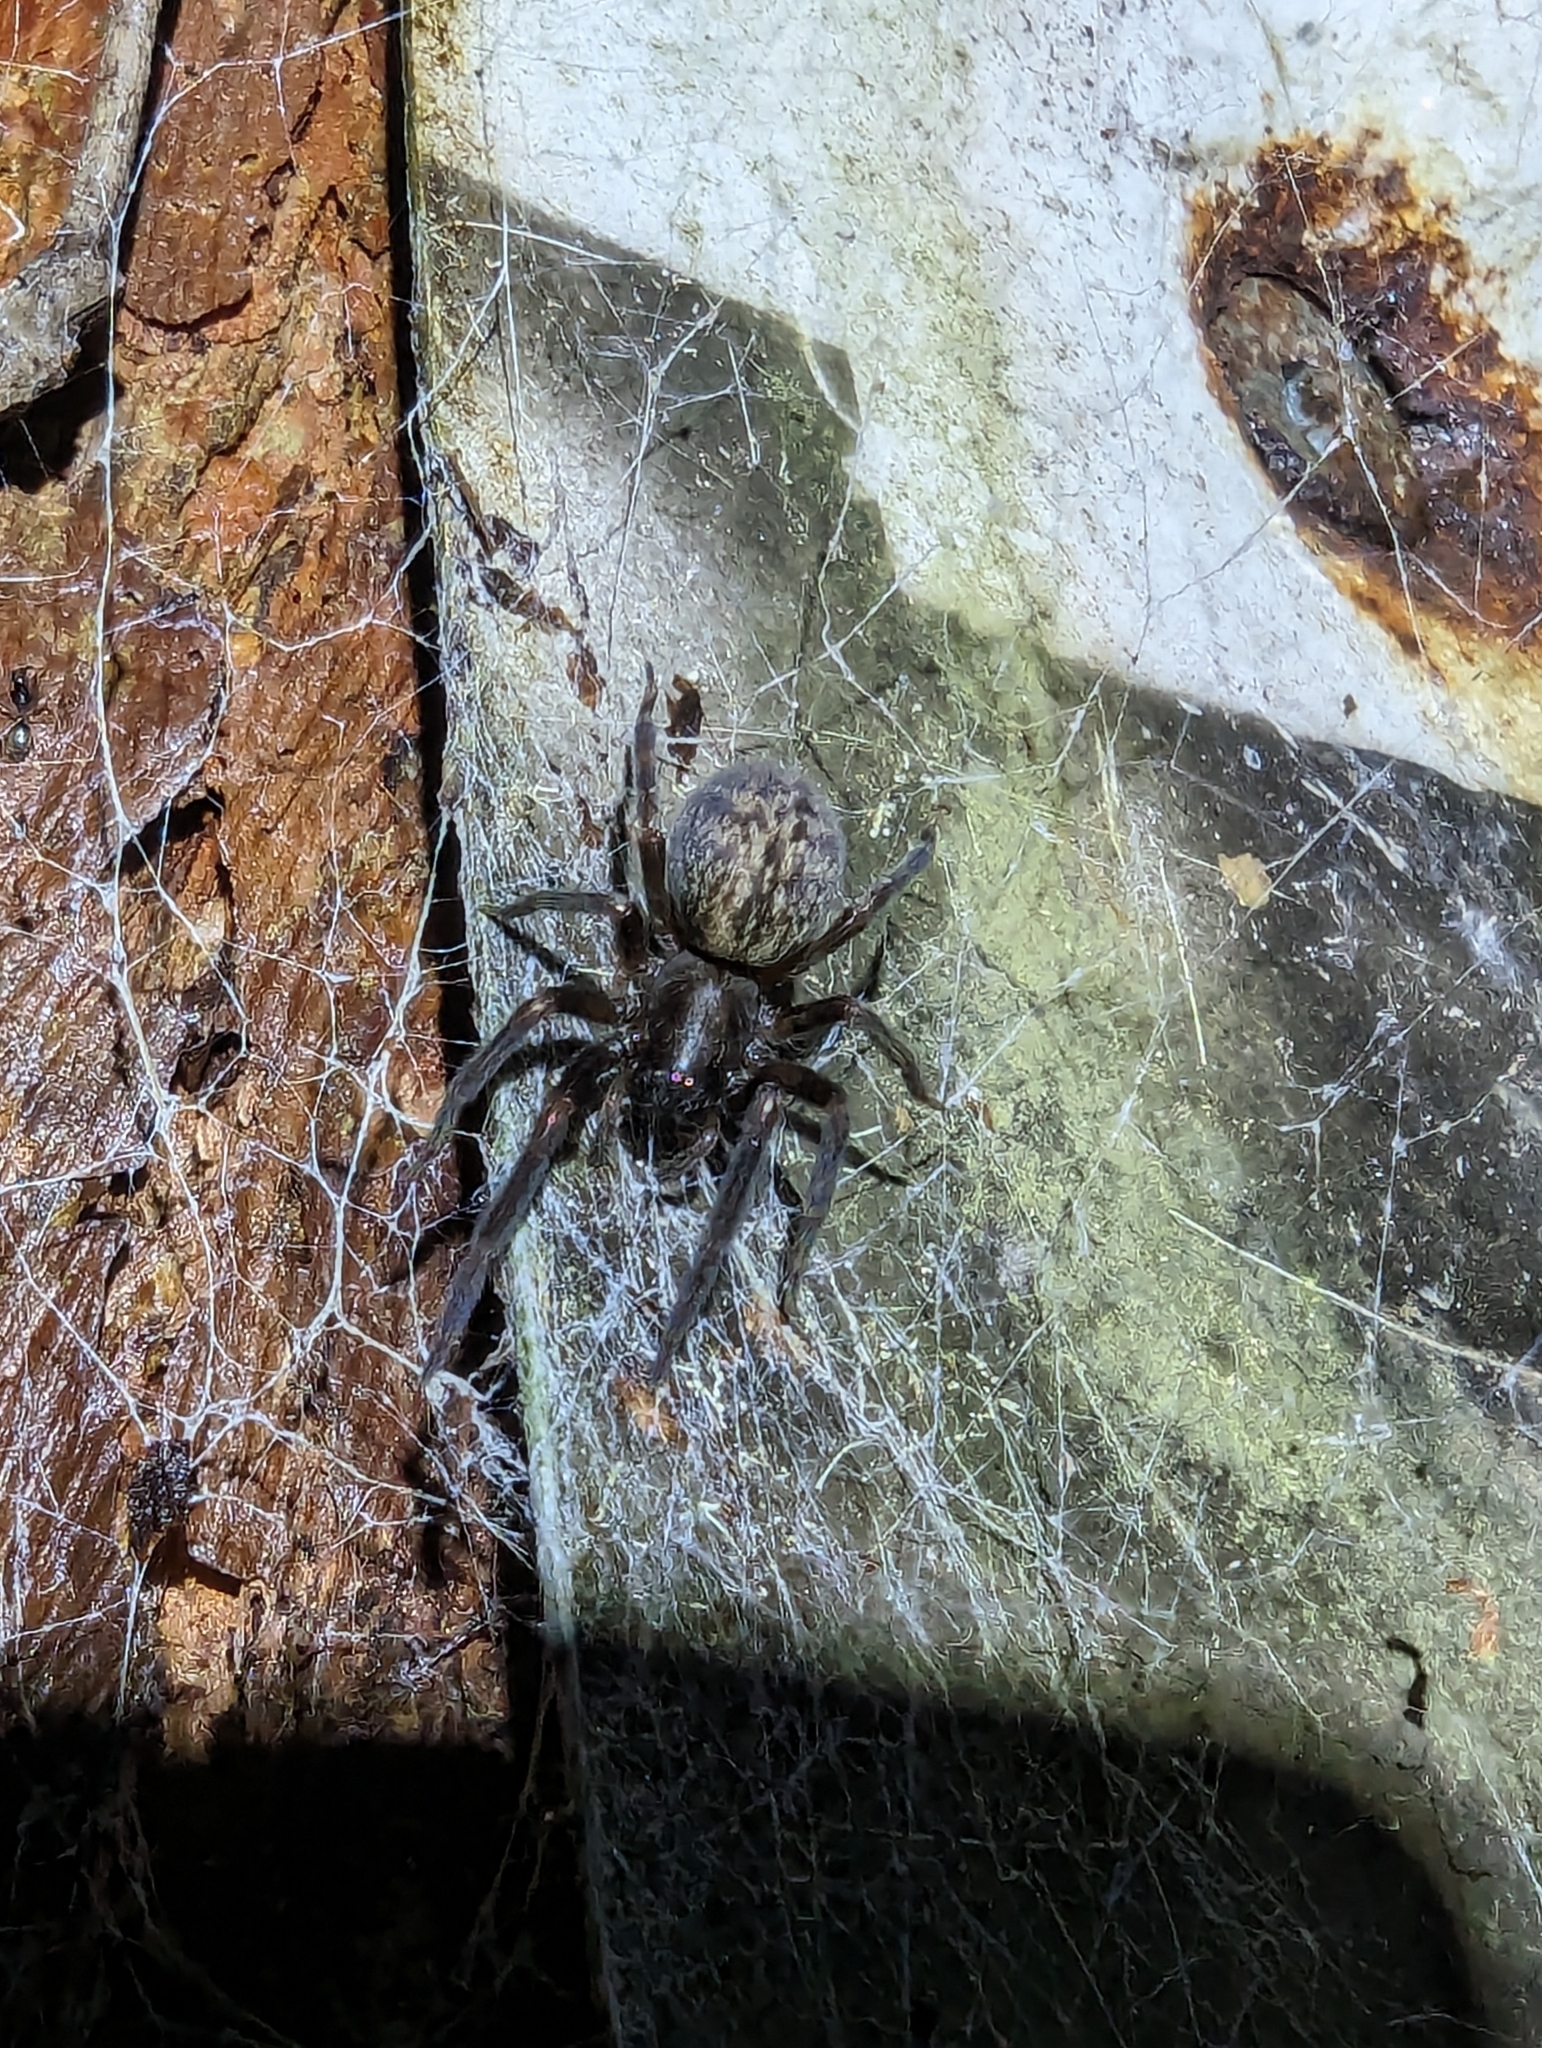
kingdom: Animalia
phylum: Arthropoda
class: Arachnida
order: Araneae
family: Desidae
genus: Badumna
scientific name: Badumna insignis
